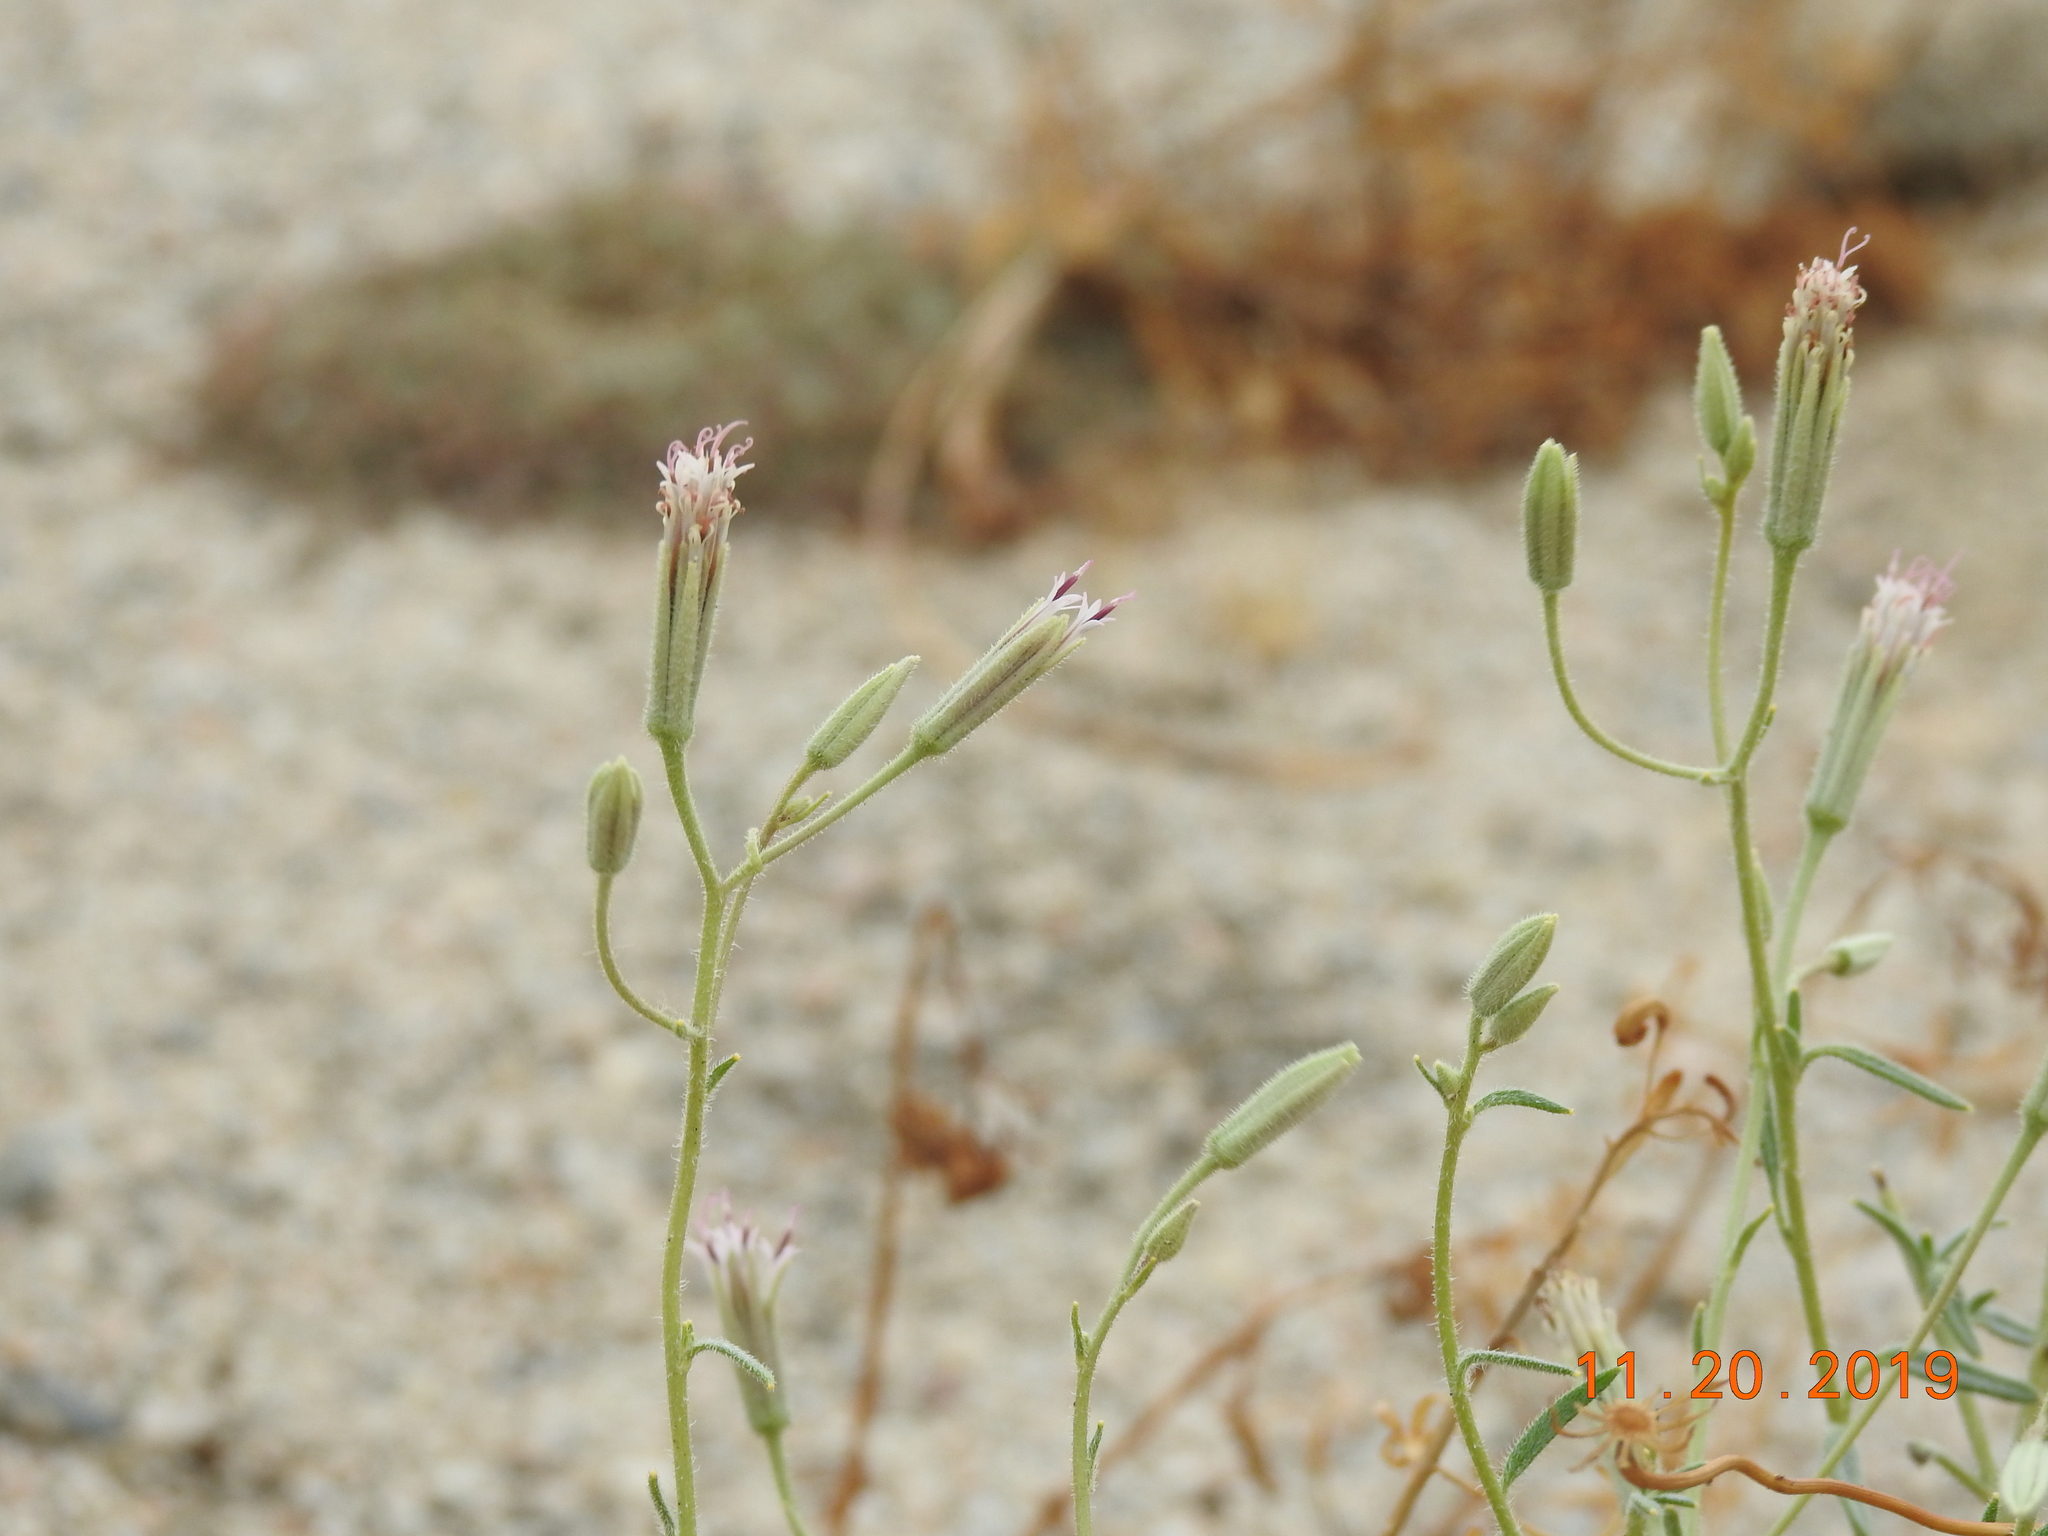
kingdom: Plantae
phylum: Tracheophyta
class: Magnoliopsida
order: Asterales
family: Asteraceae
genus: Palafoxia
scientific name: Palafoxia arida
